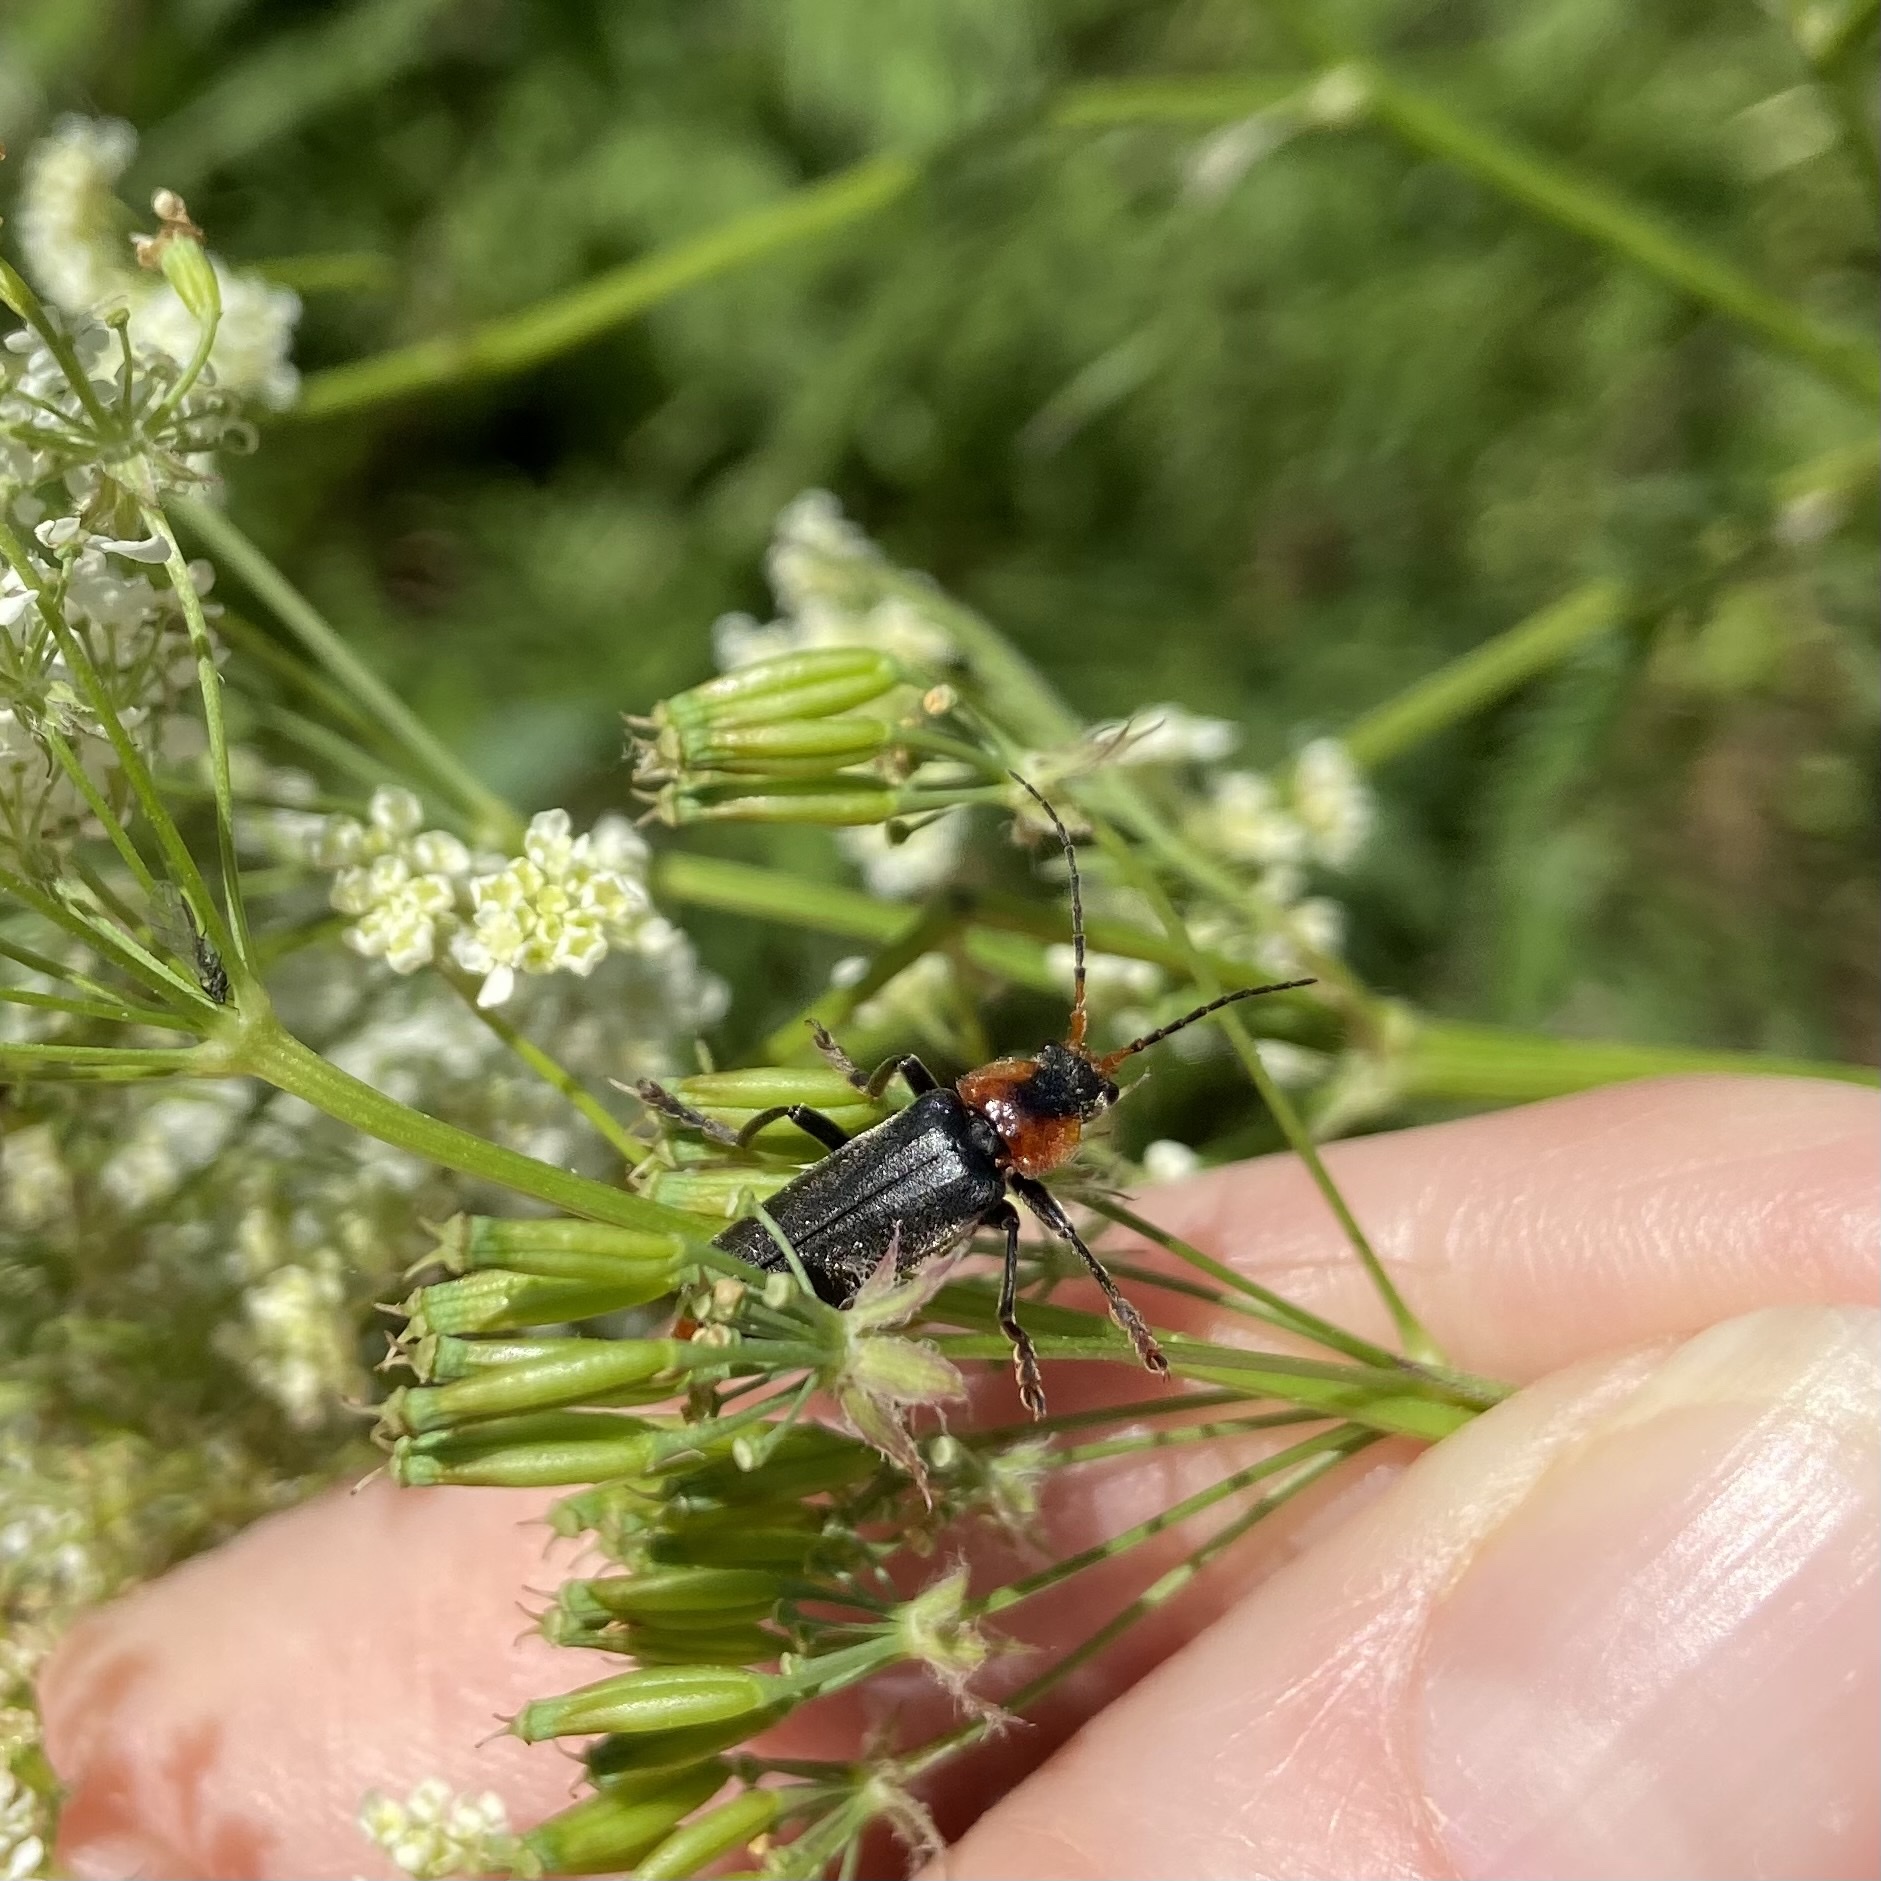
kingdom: Animalia
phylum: Arthropoda
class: Insecta
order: Coleoptera
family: Cantharidae
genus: Cantharis
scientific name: Cantharis fusca
